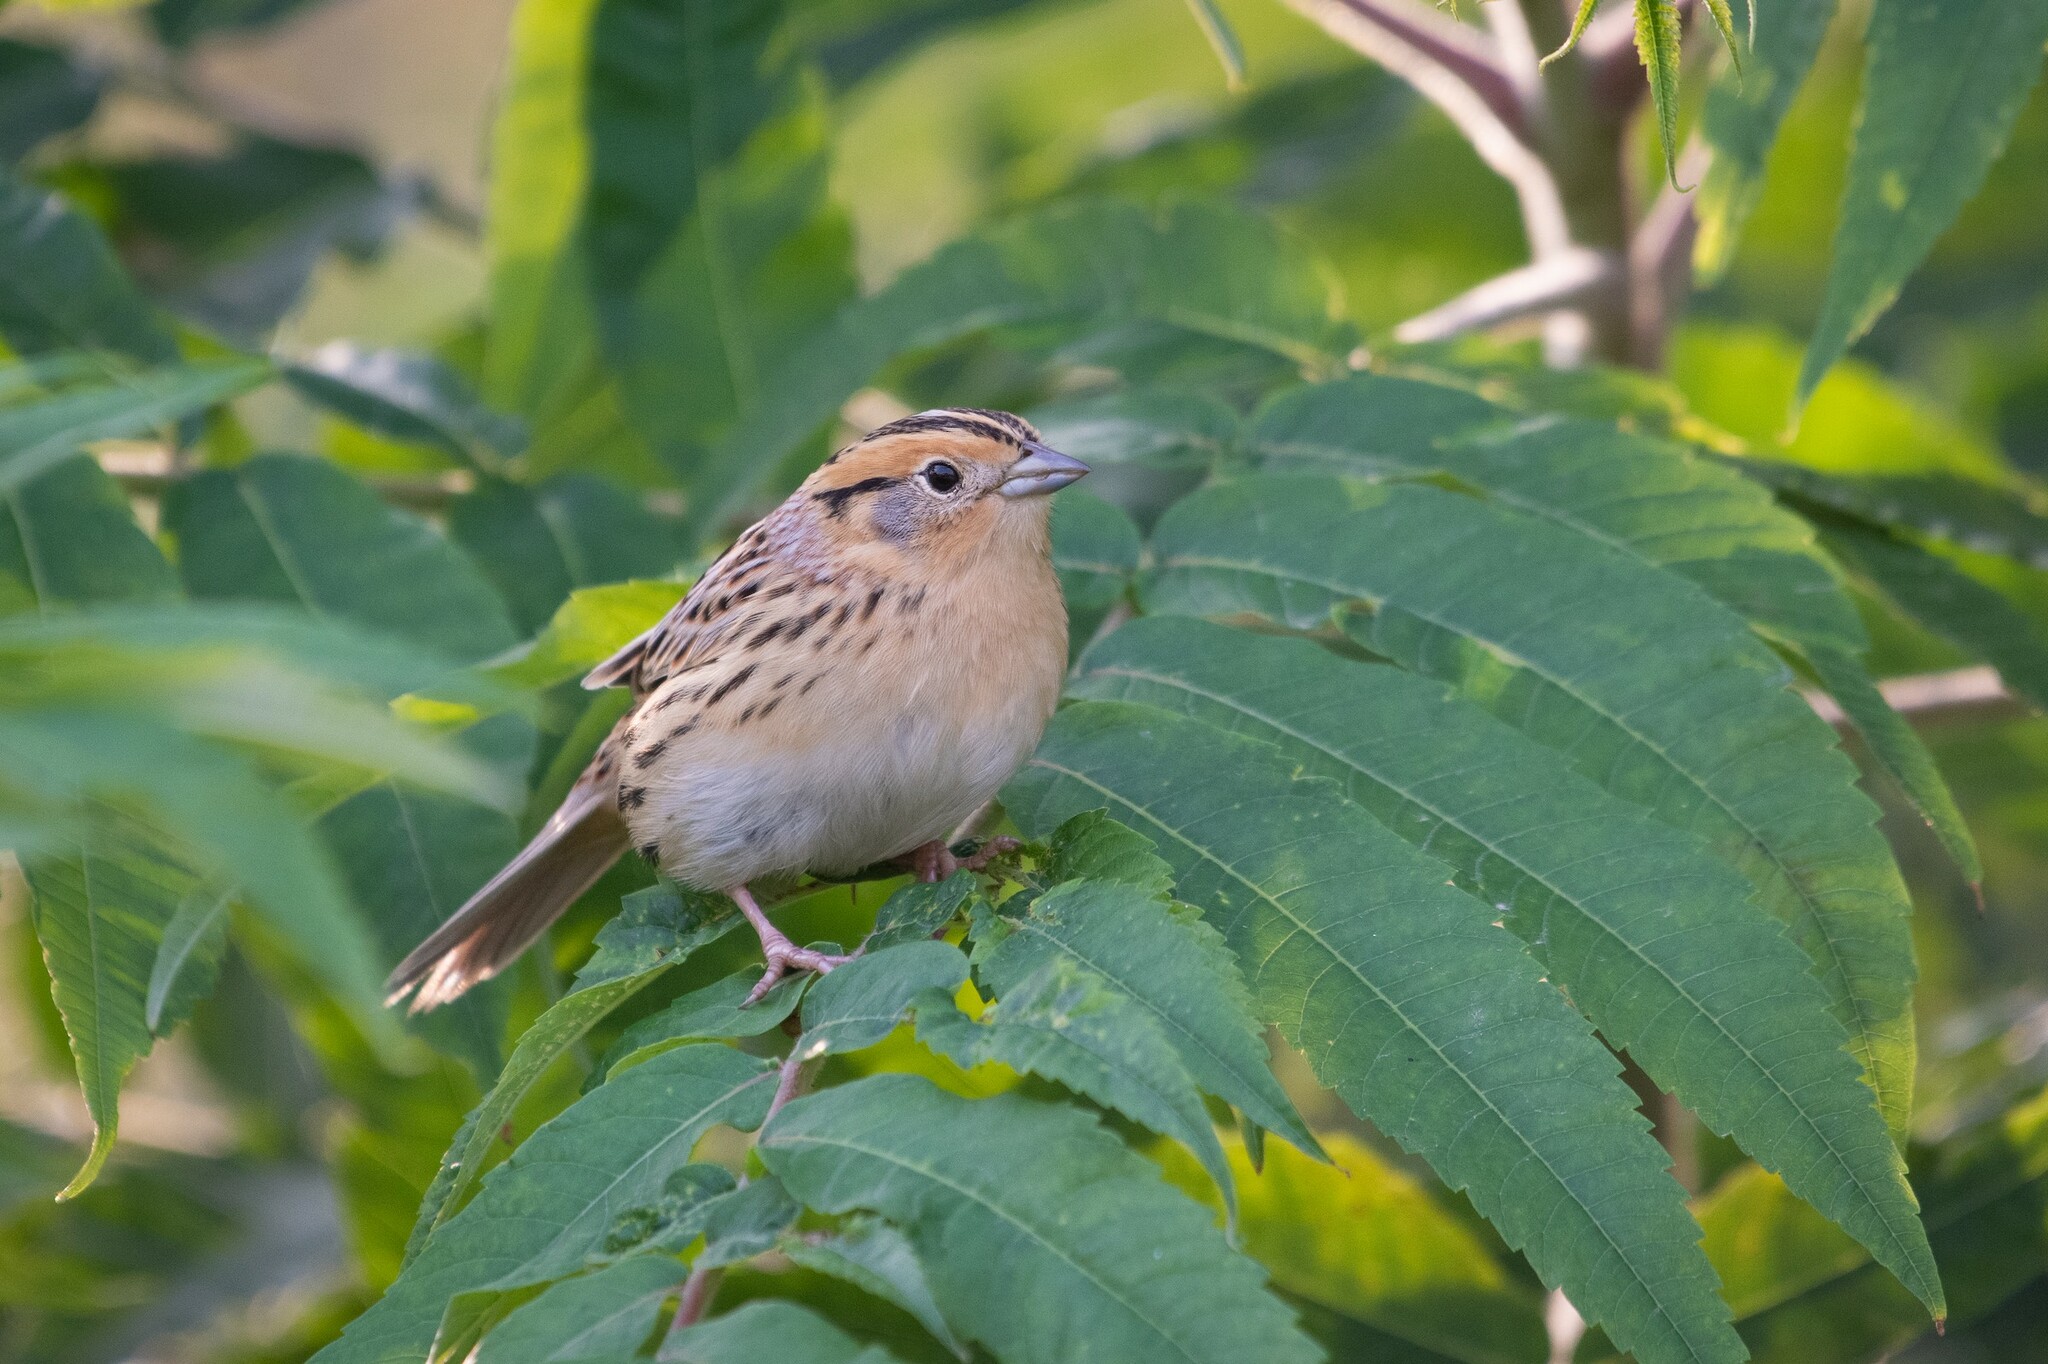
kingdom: Animalia
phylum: Chordata
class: Aves
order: Passeriformes
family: Passerellidae
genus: Ammospiza
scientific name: Ammospiza leconteii
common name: Le conte's sparrow
